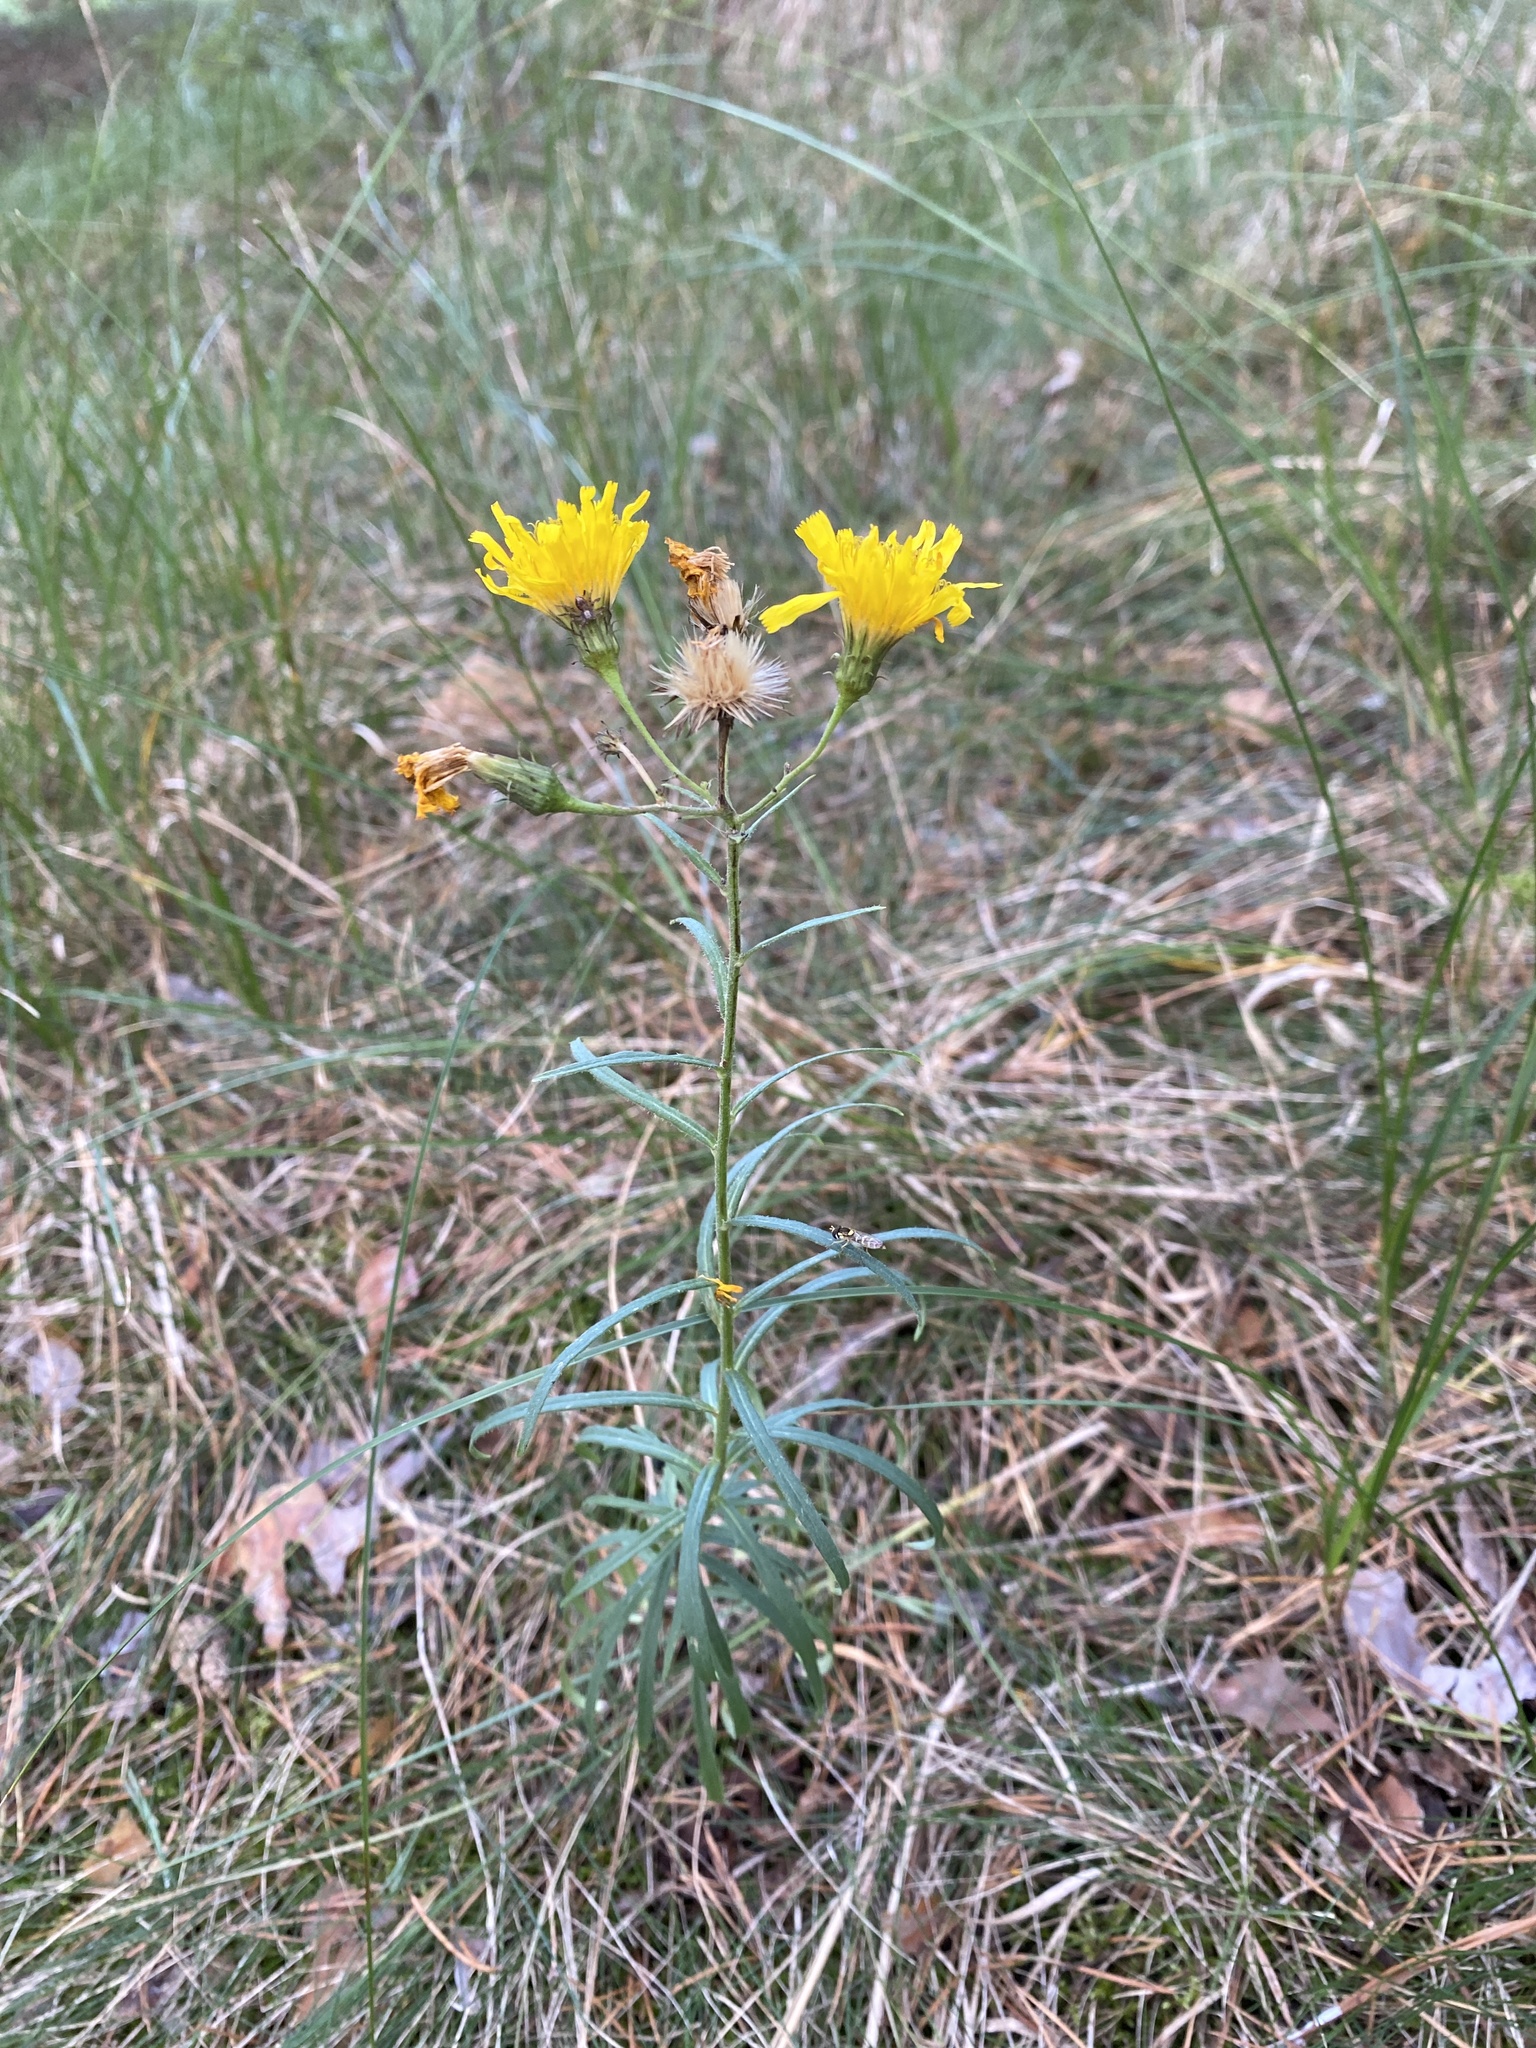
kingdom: Plantae
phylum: Tracheophyta
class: Magnoliopsida
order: Asterales
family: Asteraceae
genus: Hieracium
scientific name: Hieracium umbellatum
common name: Northern hawkweed
